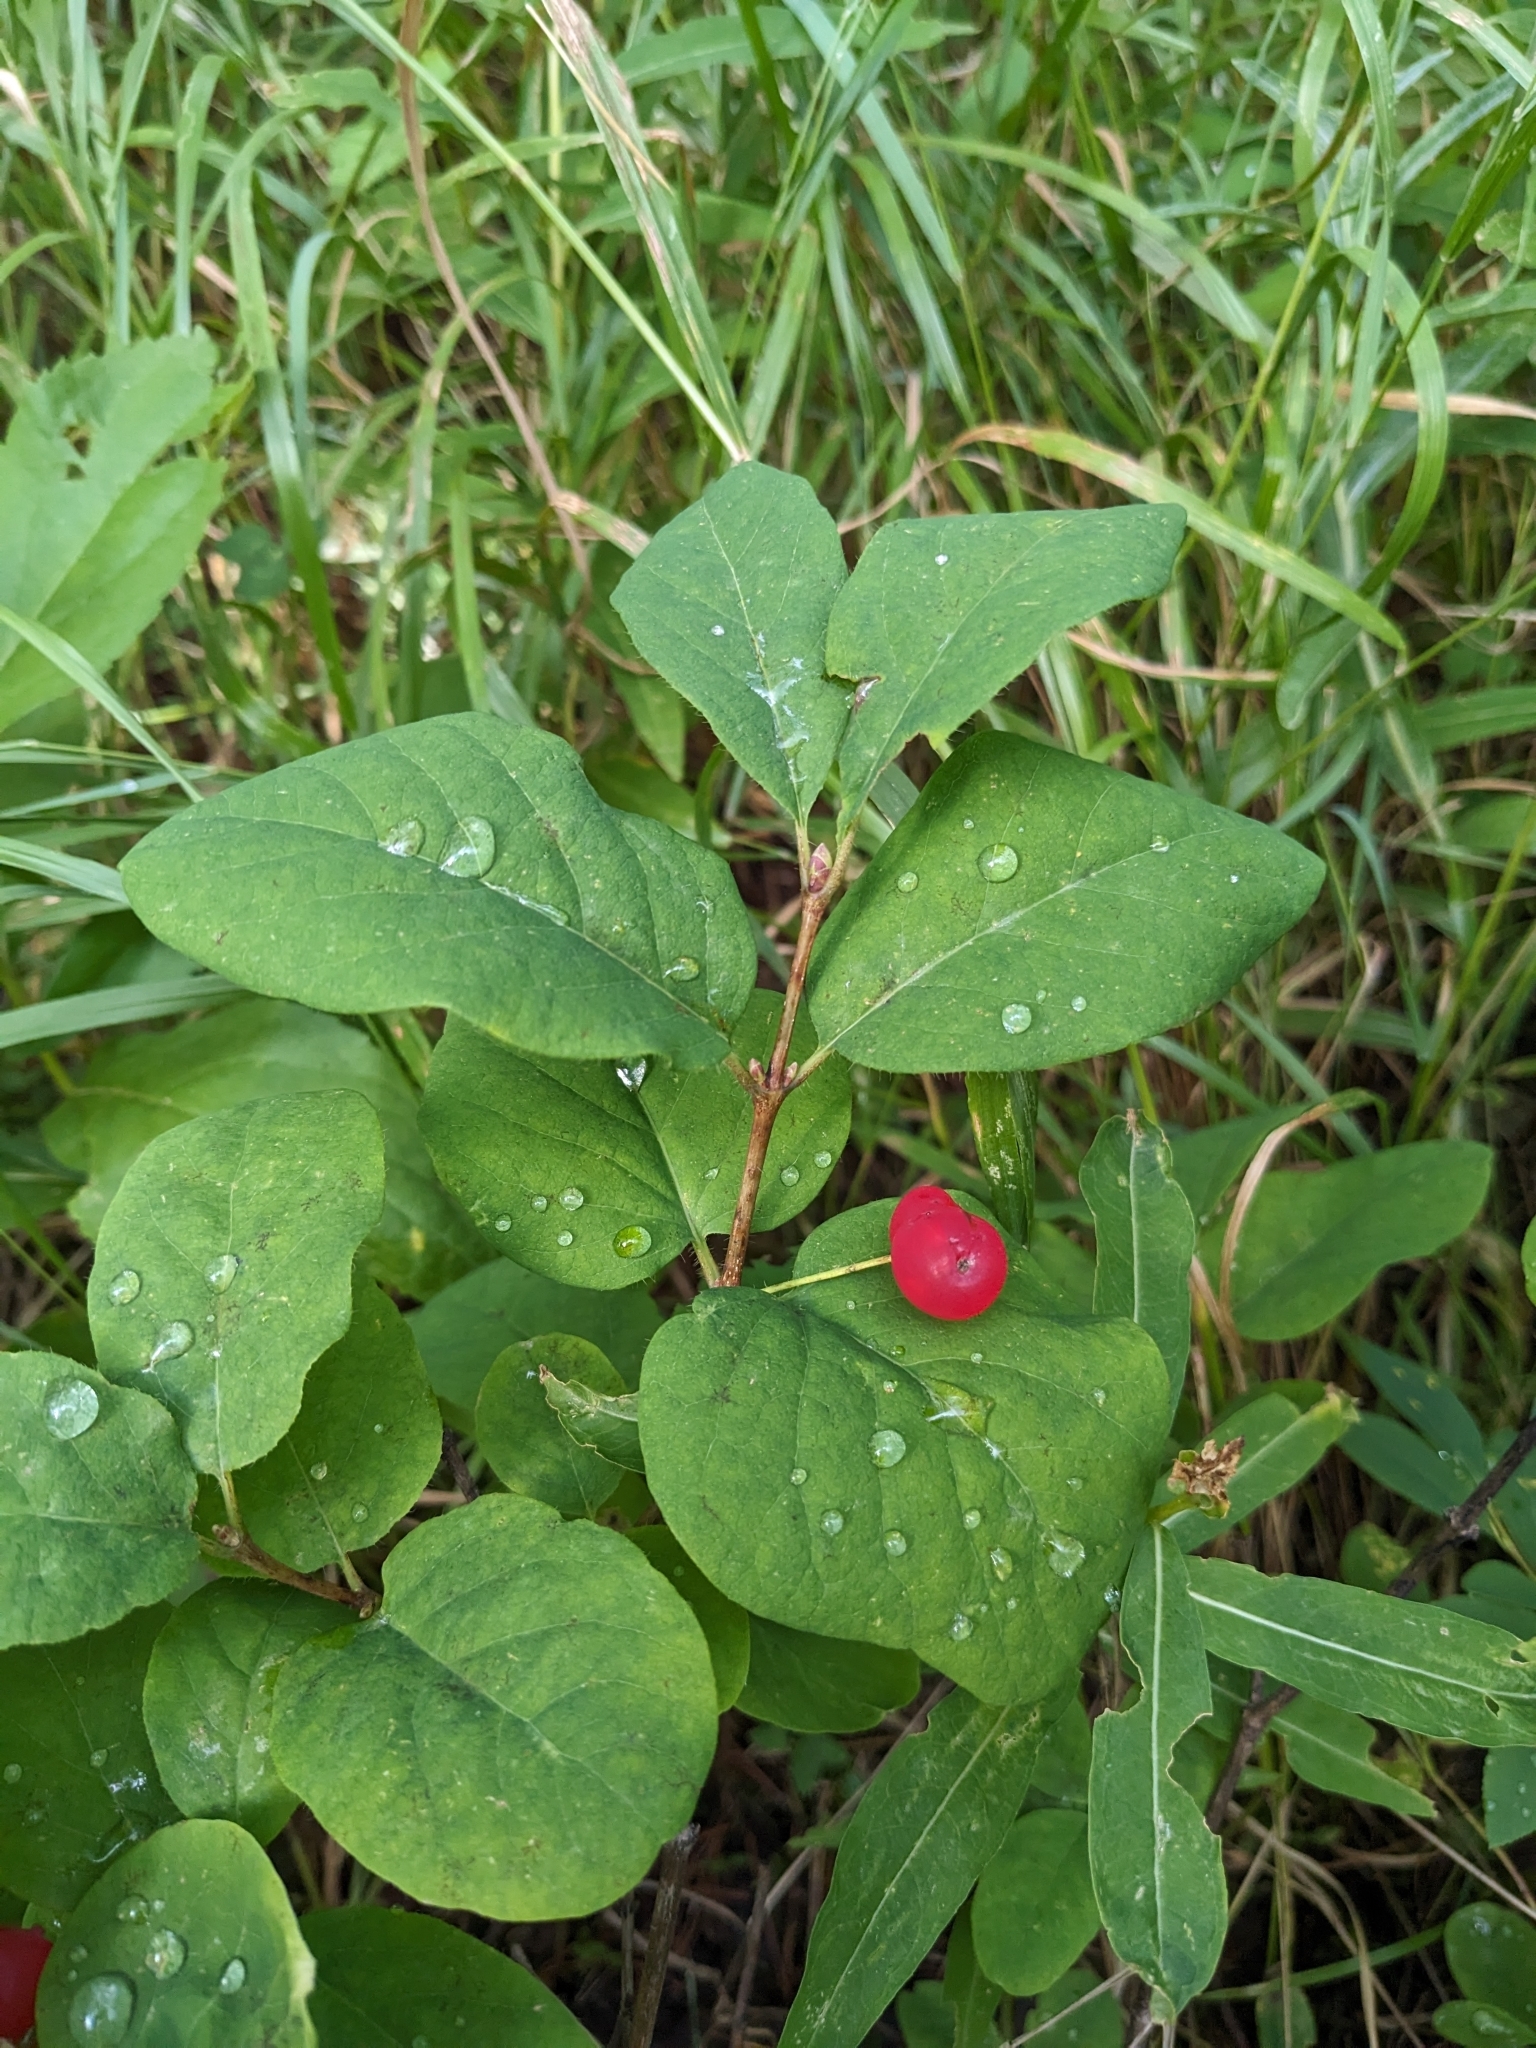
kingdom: Plantae
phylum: Tracheophyta
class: Magnoliopsida
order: Dipsacales
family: Caprifoliaceae
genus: Lonicera
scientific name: Lonicera utahensis
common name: Utah honeysuckle
